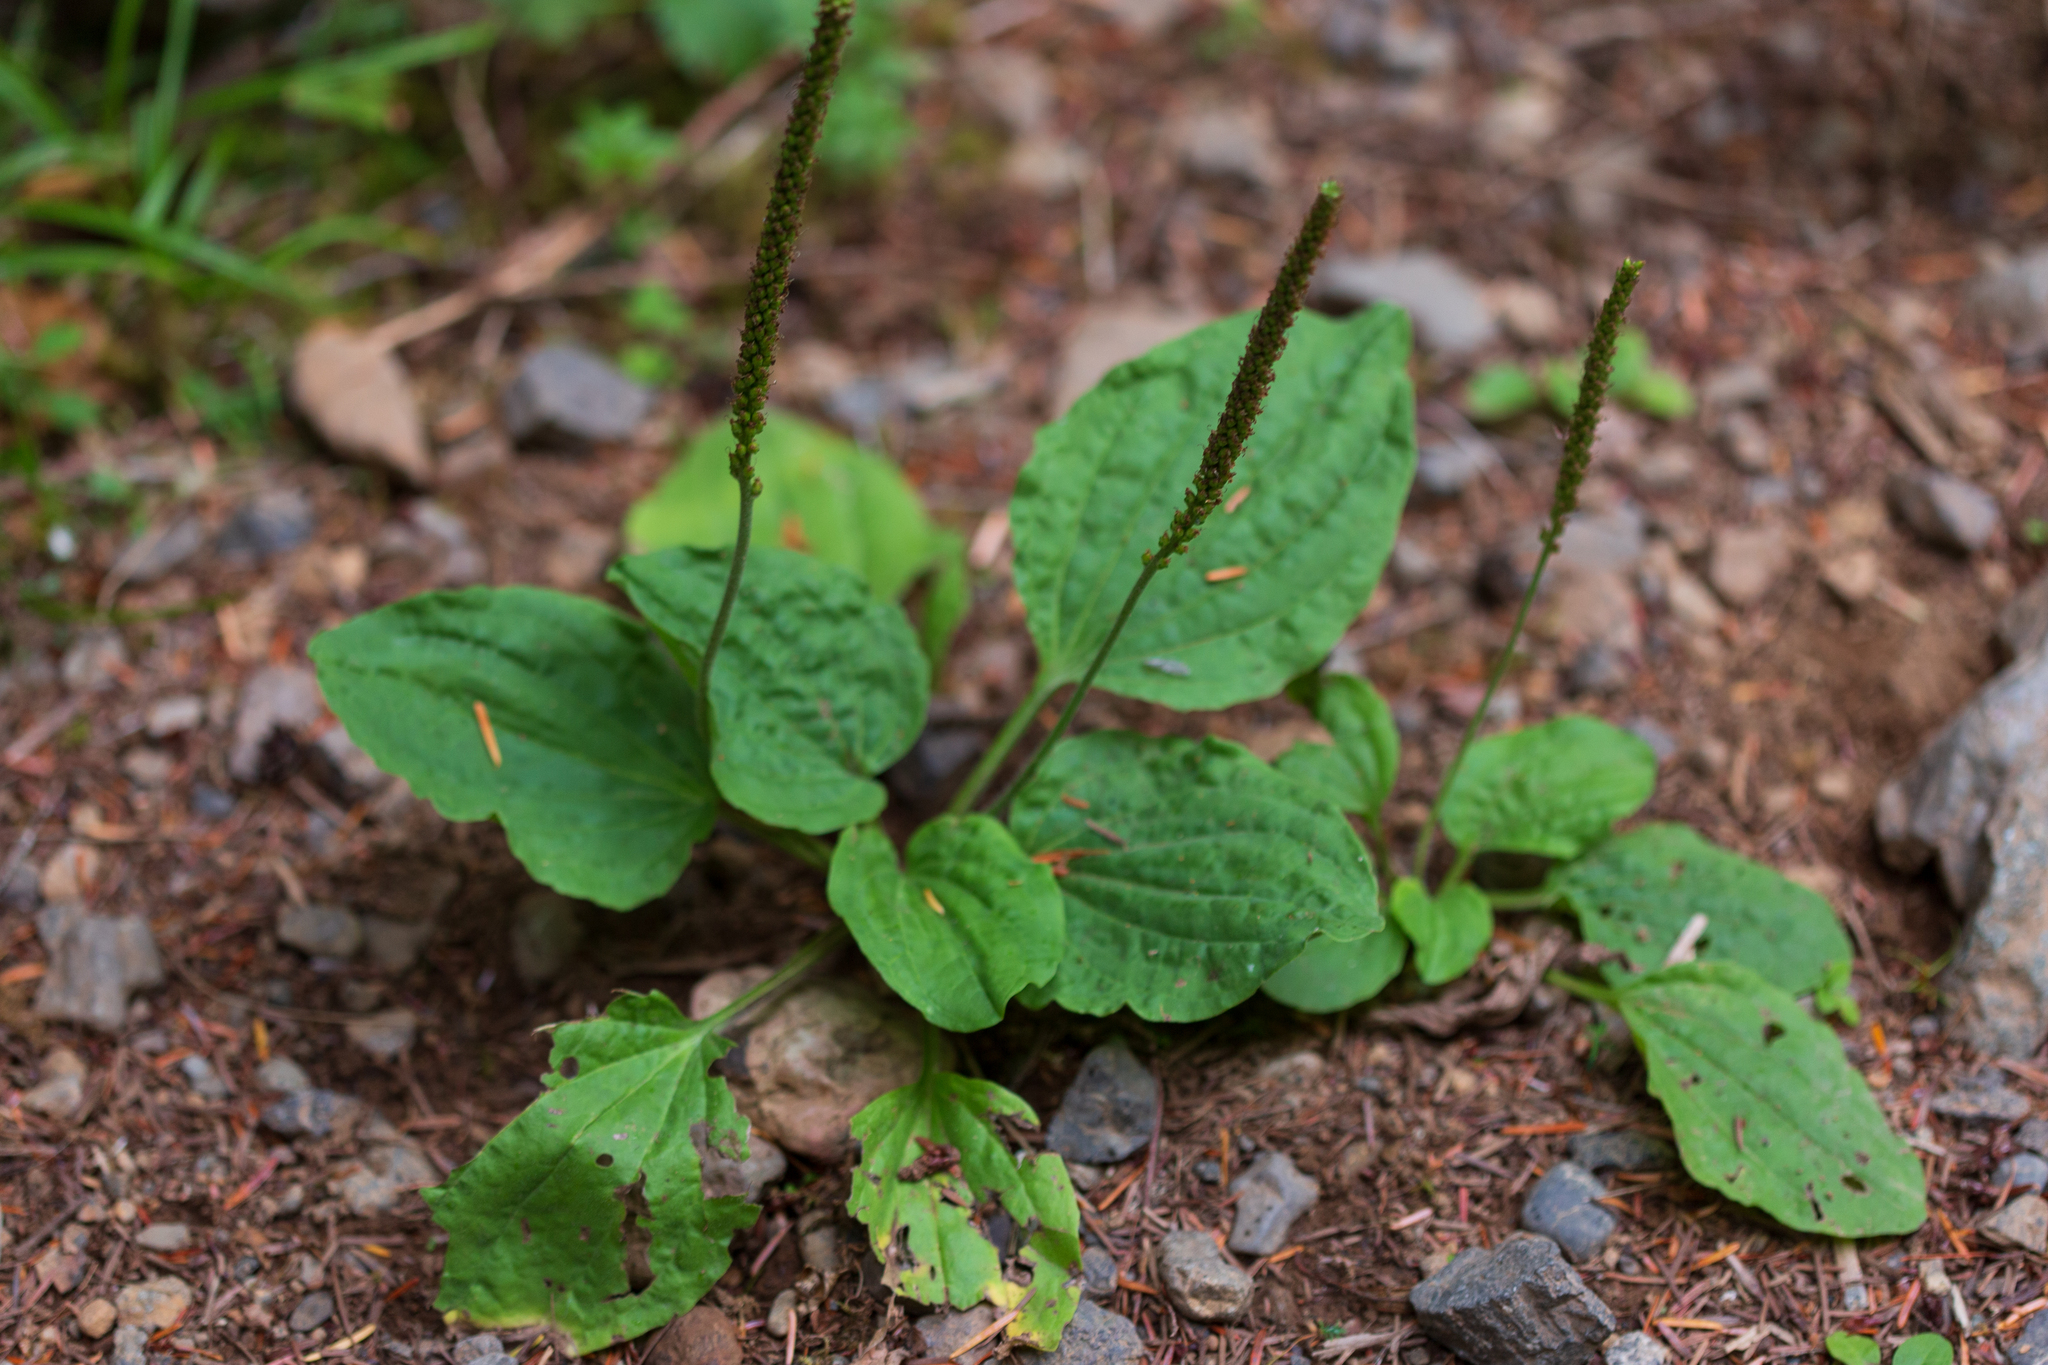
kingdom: Plantae
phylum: Tracheophyta
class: Magnoliopsida
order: Lamiales
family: Plantaginaceae
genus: Plantago
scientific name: Plantago major
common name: Common plantain
